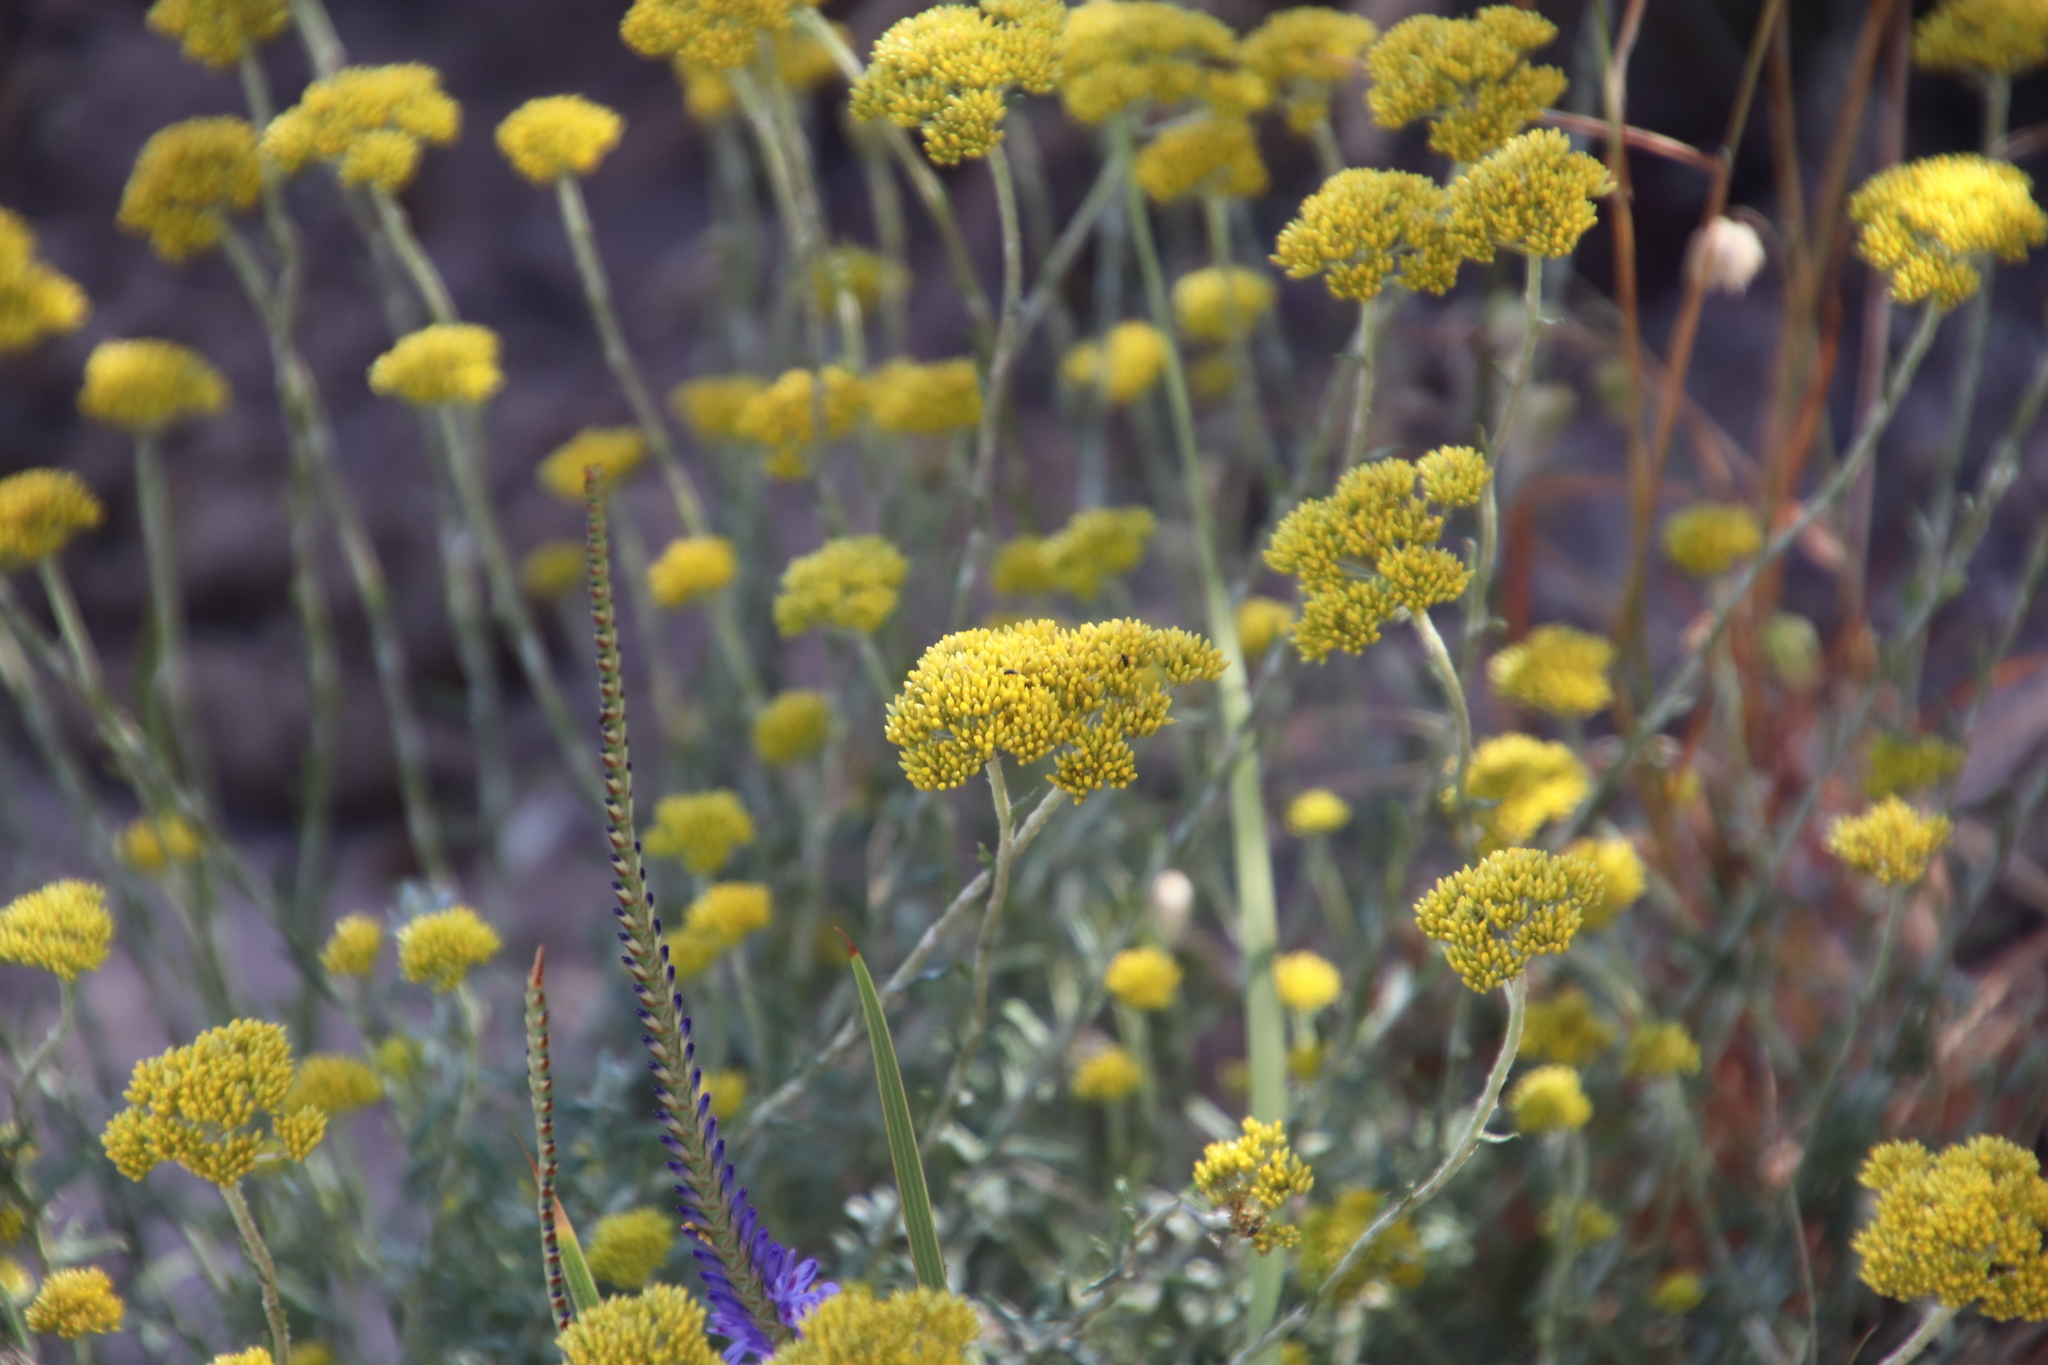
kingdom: Plantae
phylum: Tracheophyta
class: Magnoliopsida
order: Asterales
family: Asteraceae
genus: Helichrysum
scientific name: Helichrysum cymosum
